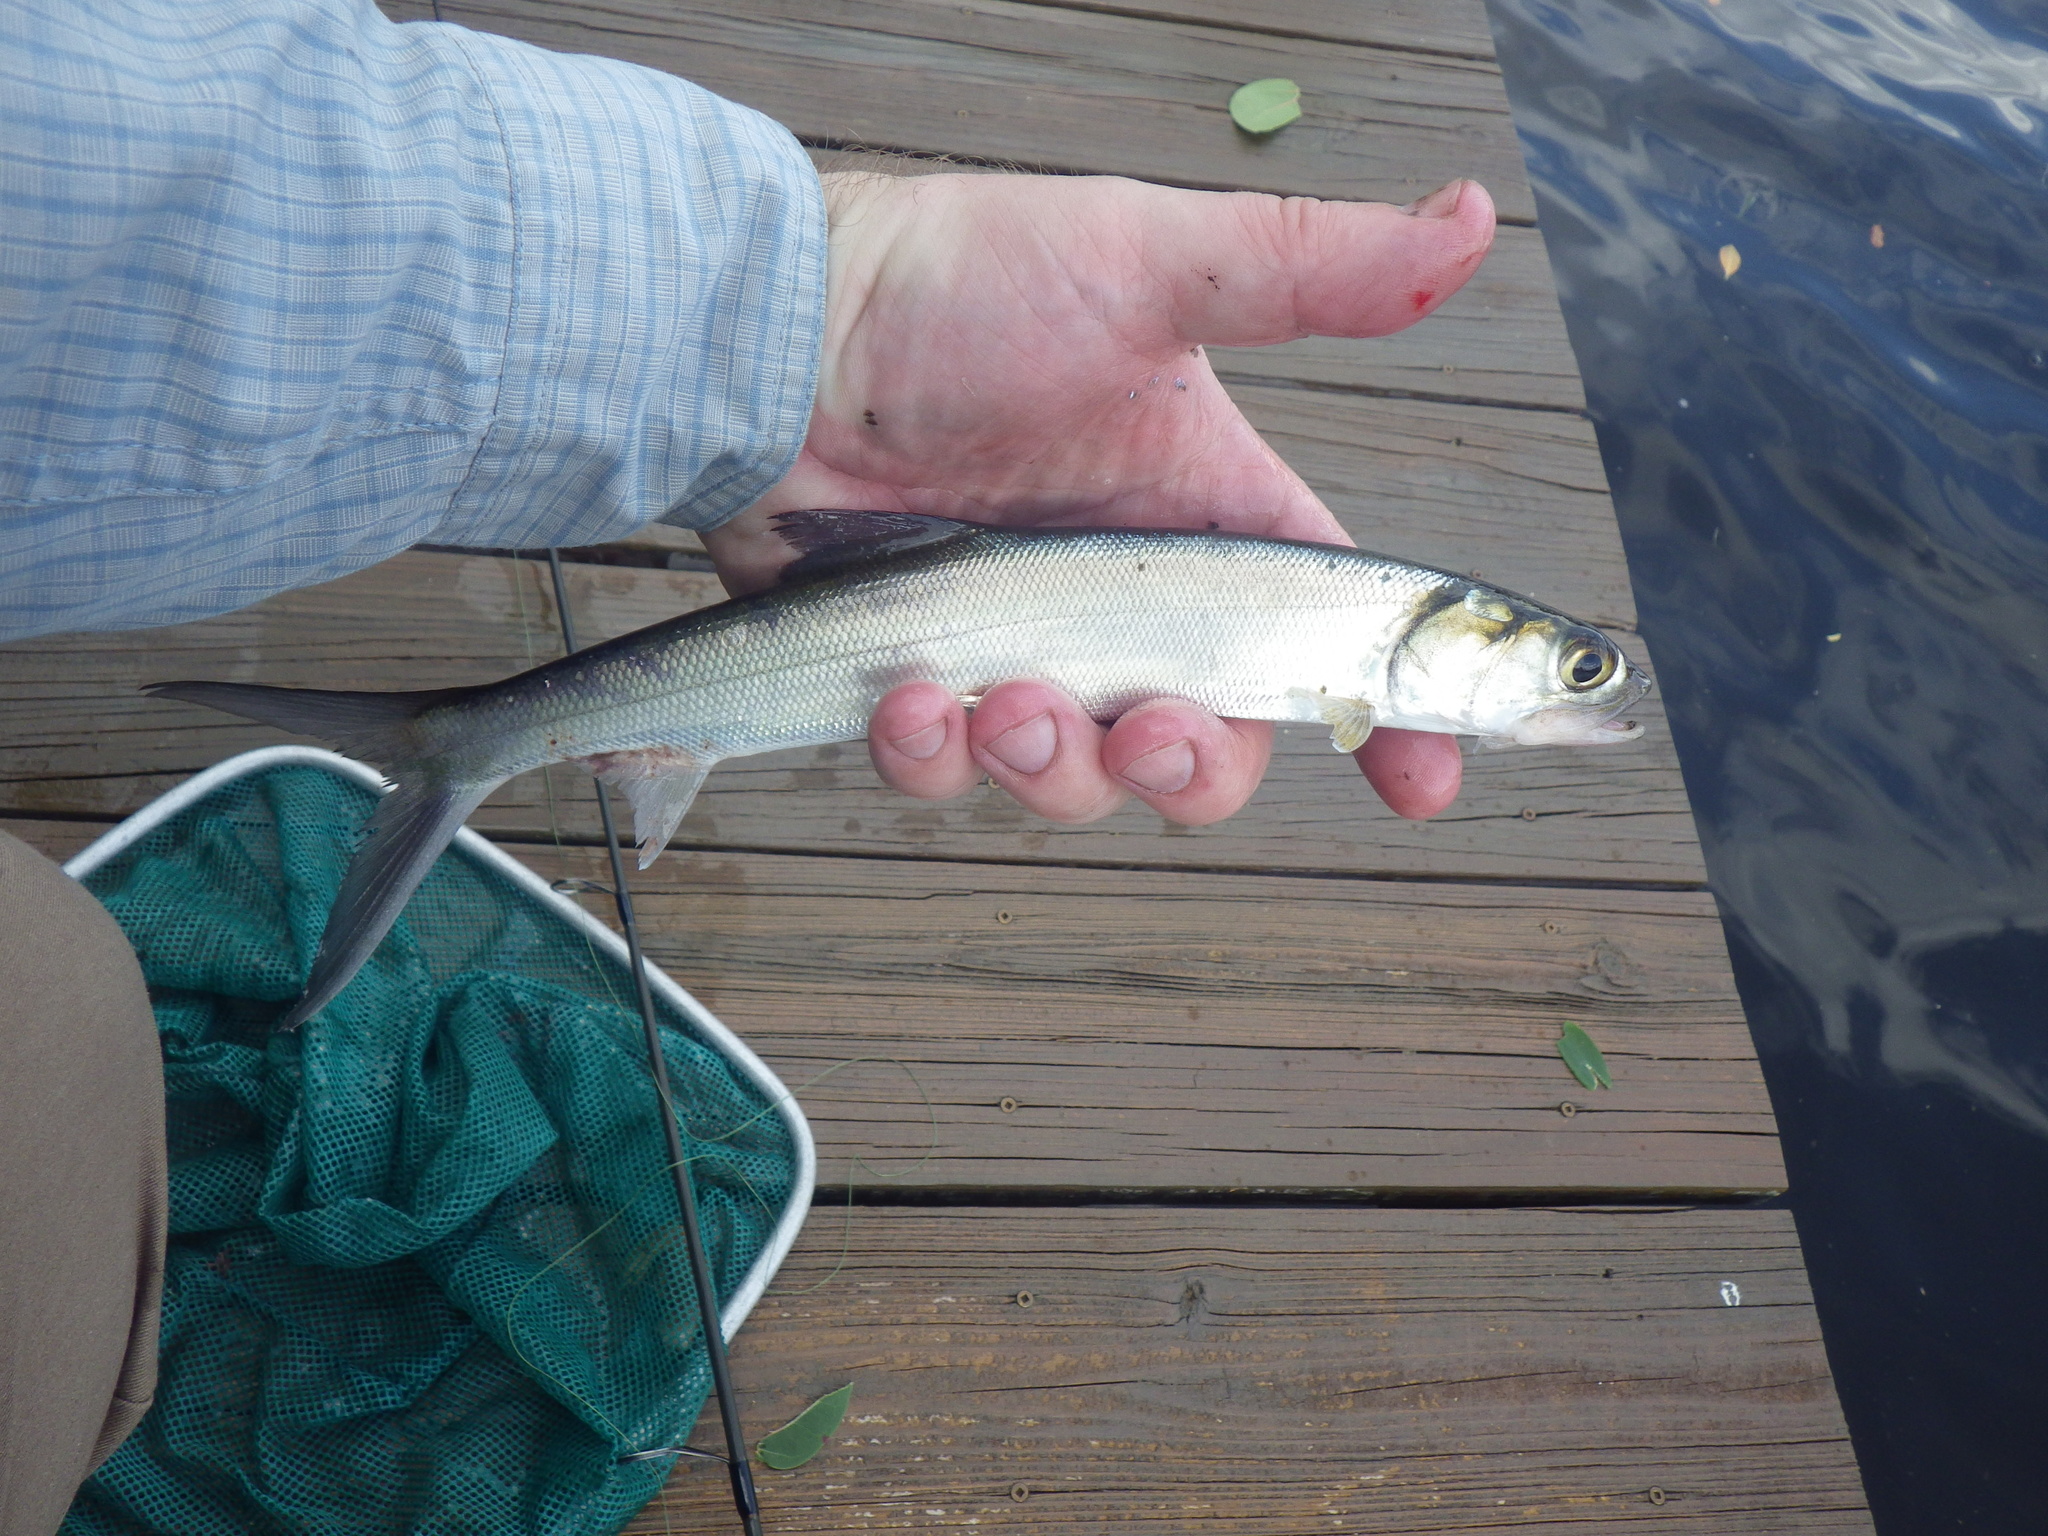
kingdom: Animalia
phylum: Chordata
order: Elopiformes
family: Elopidae
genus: Elops
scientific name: Elops saurus
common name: Ladyfish
